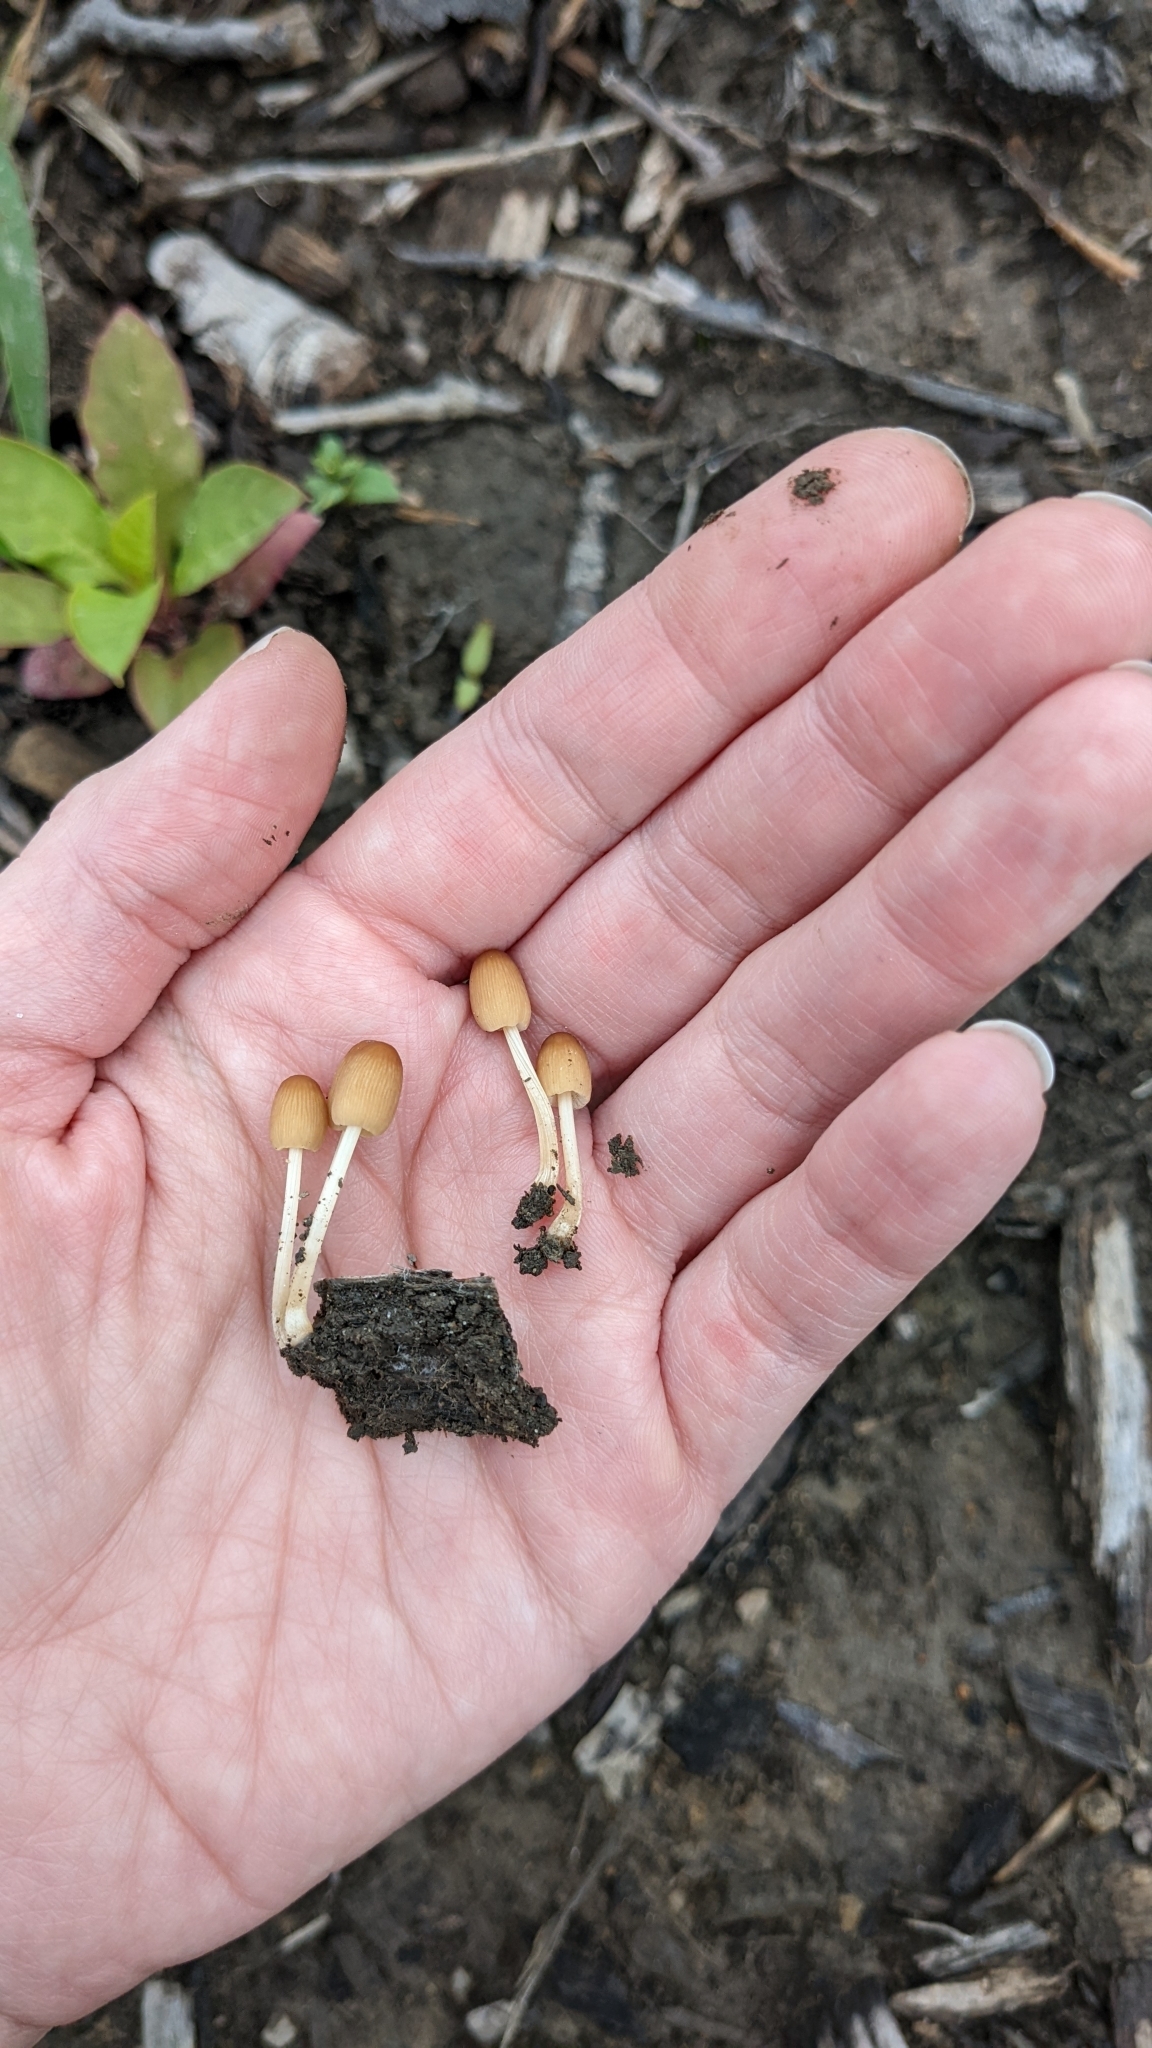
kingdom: Fungi
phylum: Basidiomycota
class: Agaricomycetes
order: Agaricales
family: Psathyrellaceae
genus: Parasola
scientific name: Parasola setulosa
